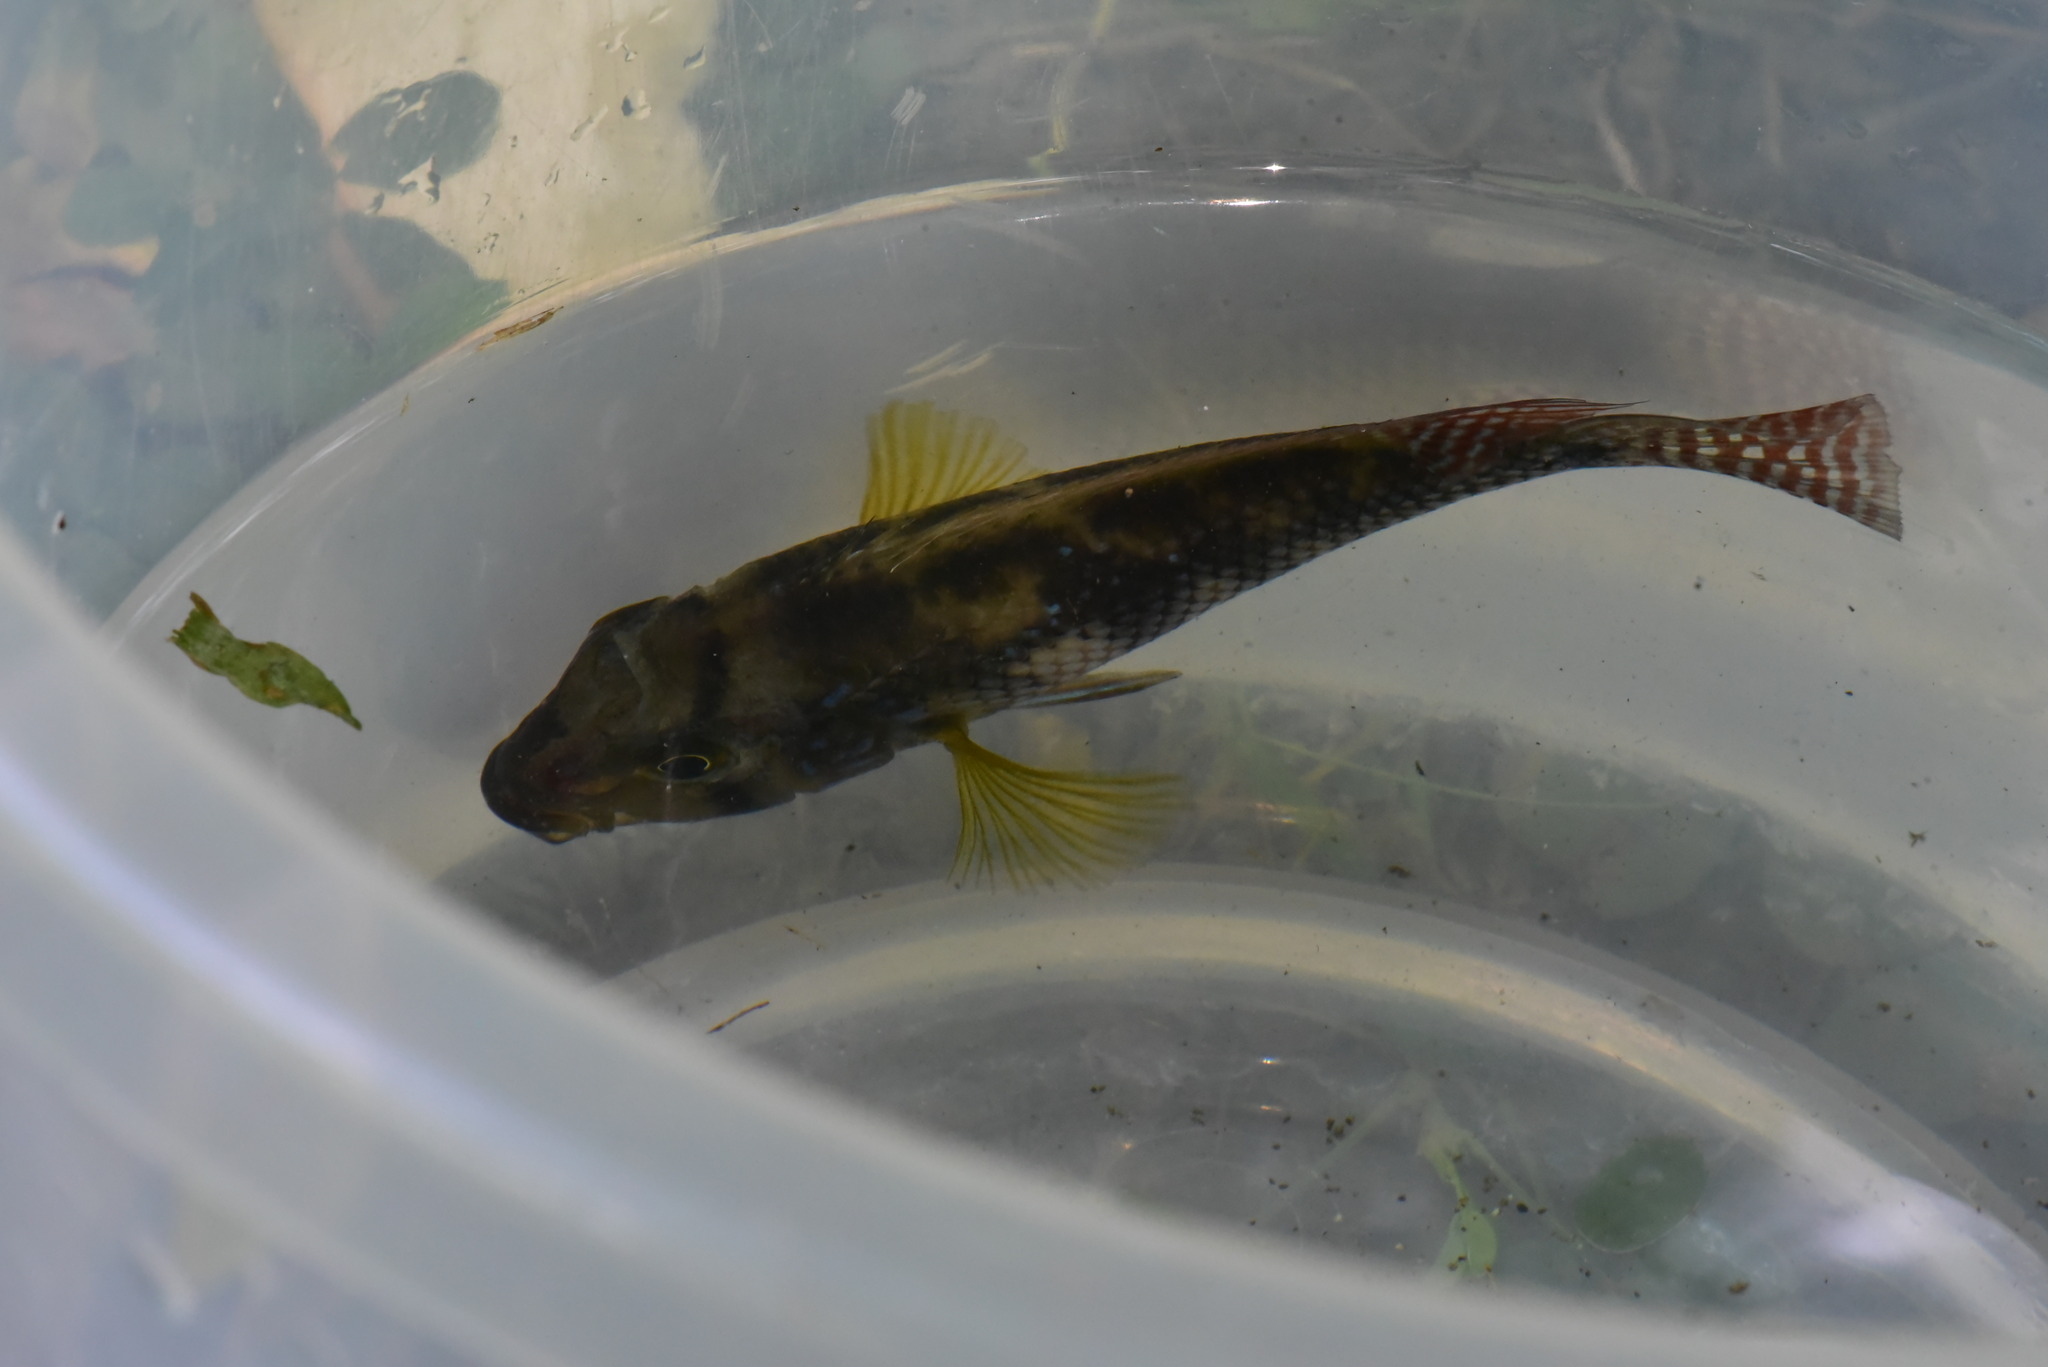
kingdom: Animalia
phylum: Chordata
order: Perciformes
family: Cichlidae
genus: Geophagus
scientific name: Geophagus brasiliensis
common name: Braziliensis
